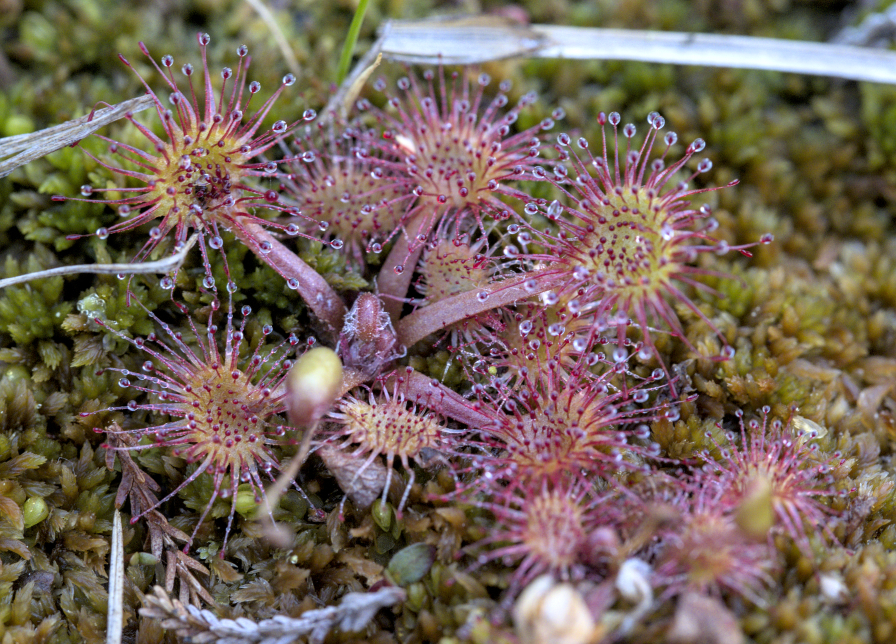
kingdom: Plantae
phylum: Tracheophyta
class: Magnoliopsida
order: Caryophyllales
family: Droseraceae
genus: Drosera
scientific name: Drosera rotundifolia
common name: Round-leaved sundew
